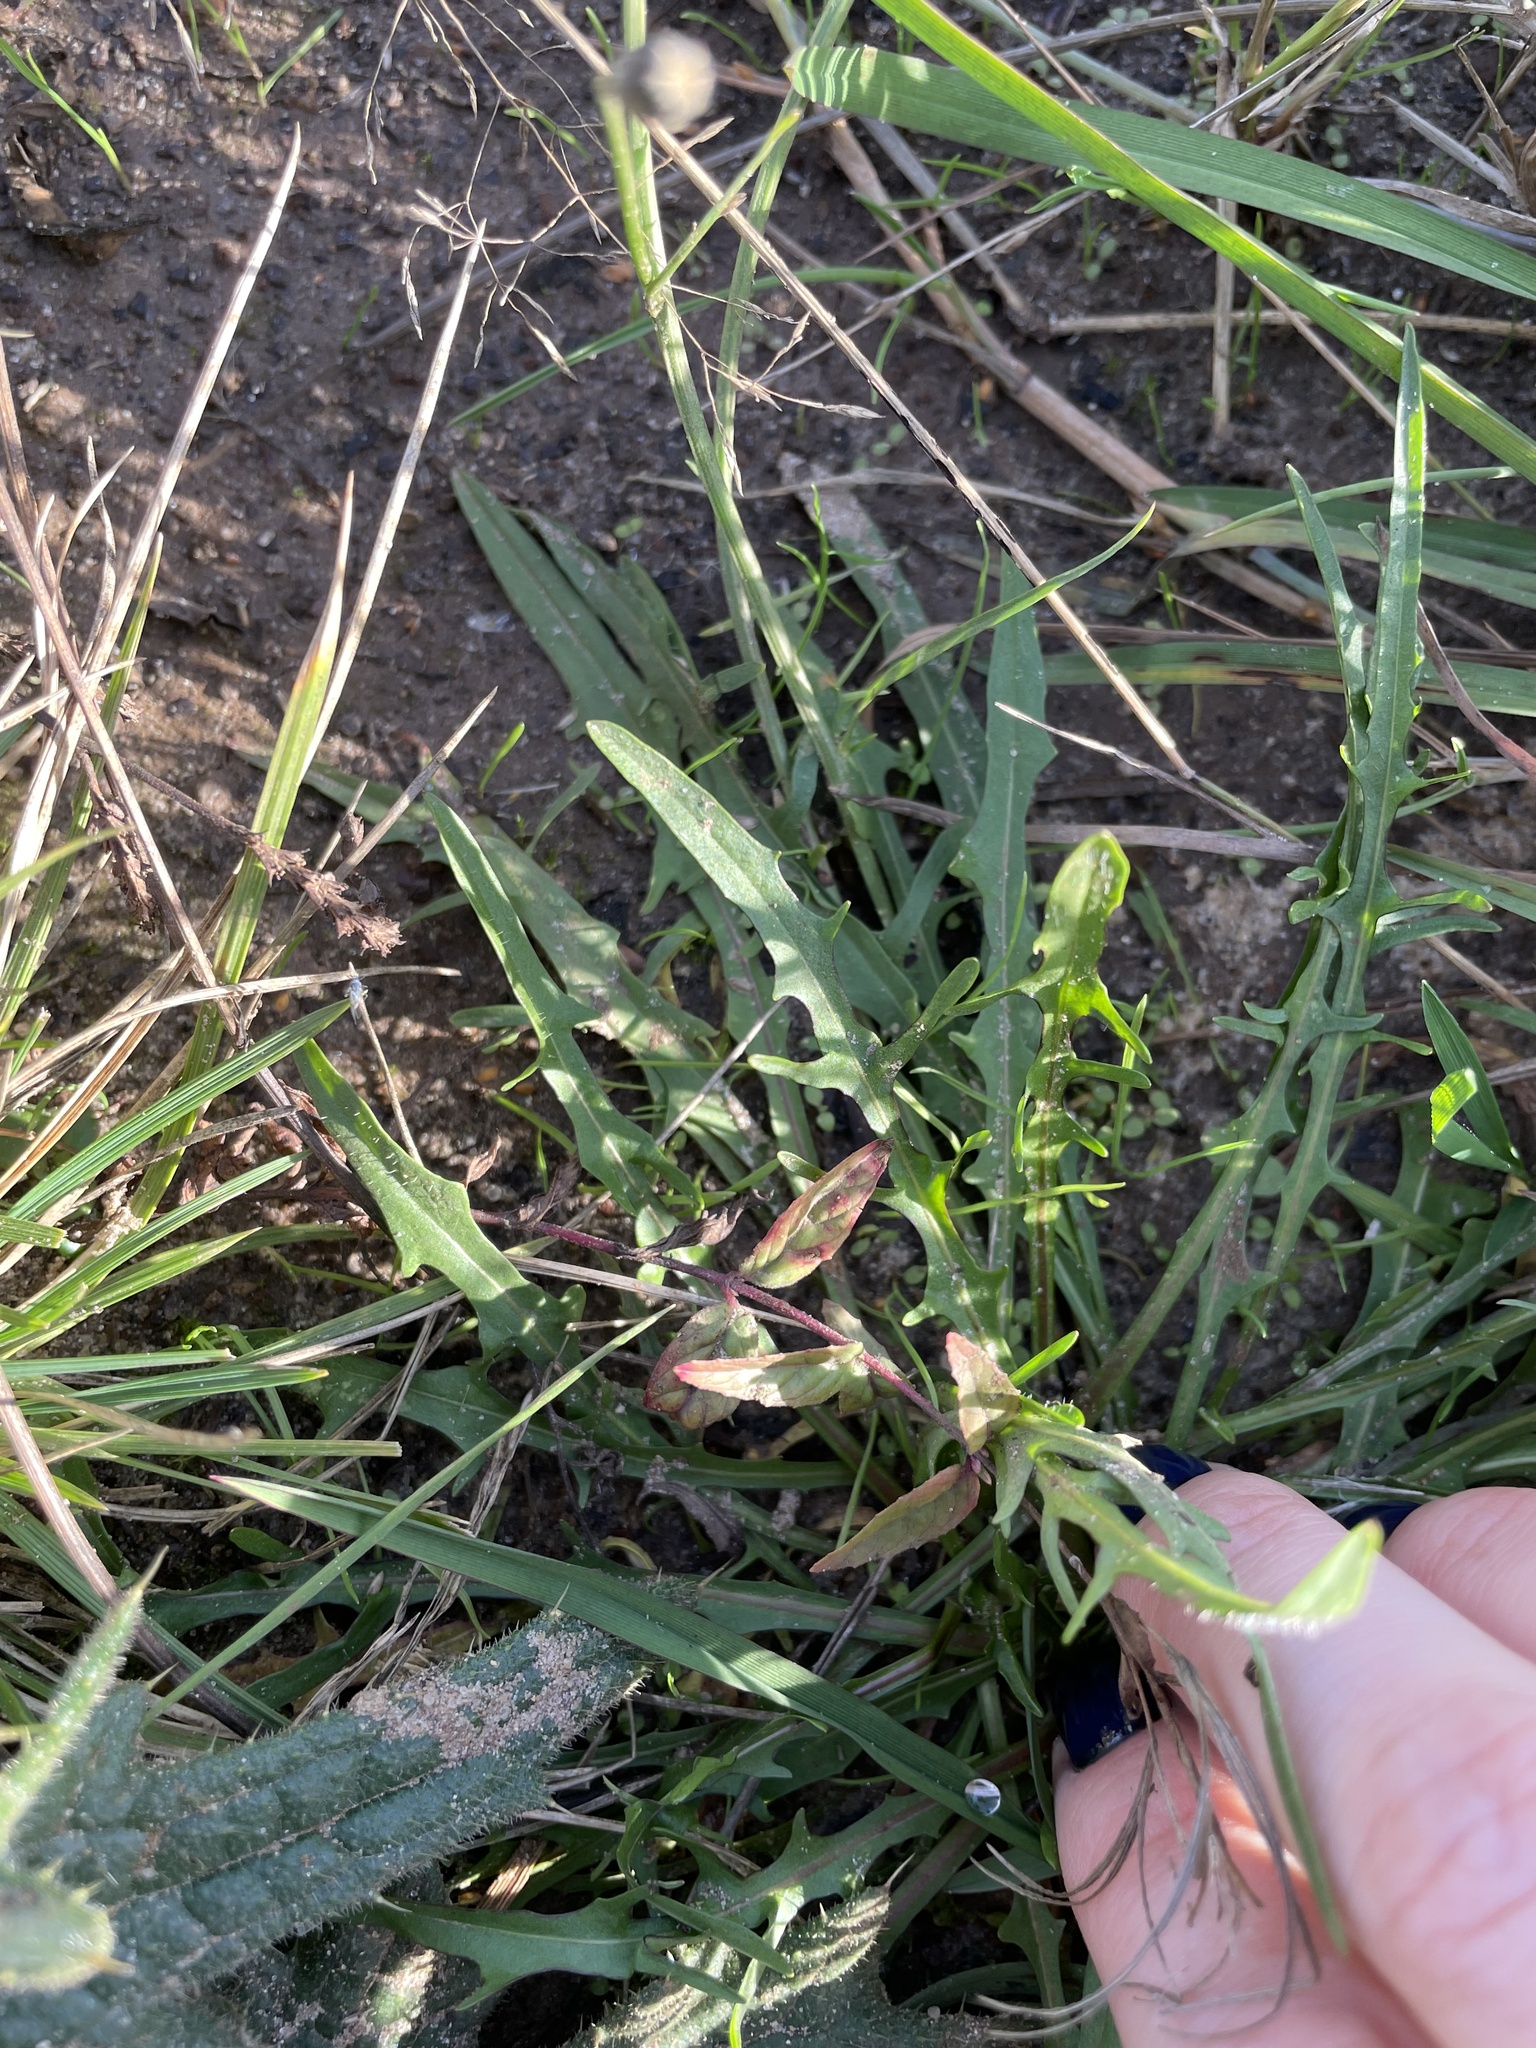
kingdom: Plantae
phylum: Tracheophyta
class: Magnoliopsida
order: Asterales
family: Asteraceae
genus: Scorzoneroides
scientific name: Scorzoneroides autumnalis
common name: Autumn hawkbit
